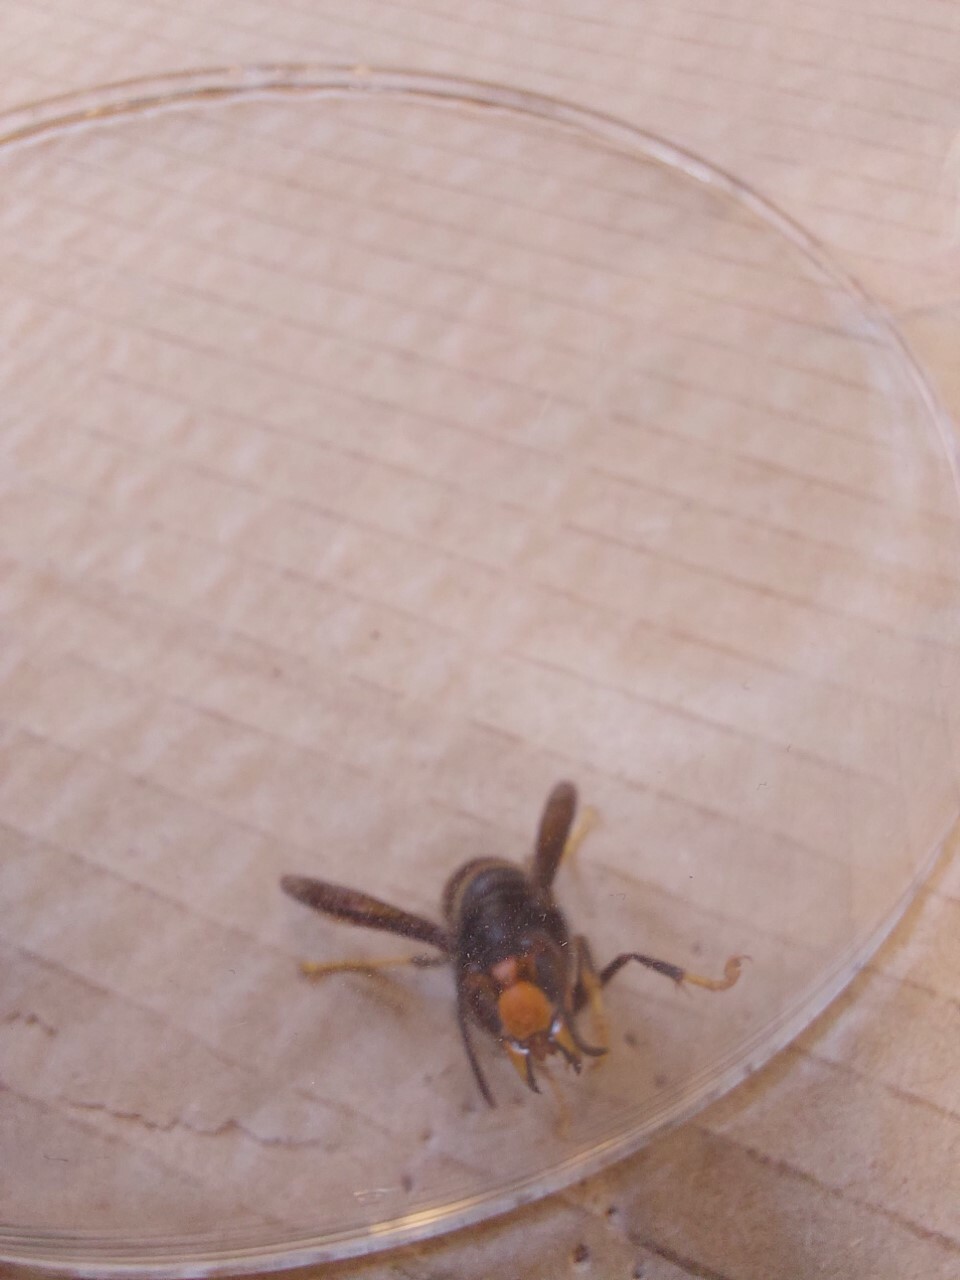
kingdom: Animalia
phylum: Arthropoda
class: Insecta
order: Hymenoptera
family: Vespidae
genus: Vespa
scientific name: Vespa velutina
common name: Asian hornet
